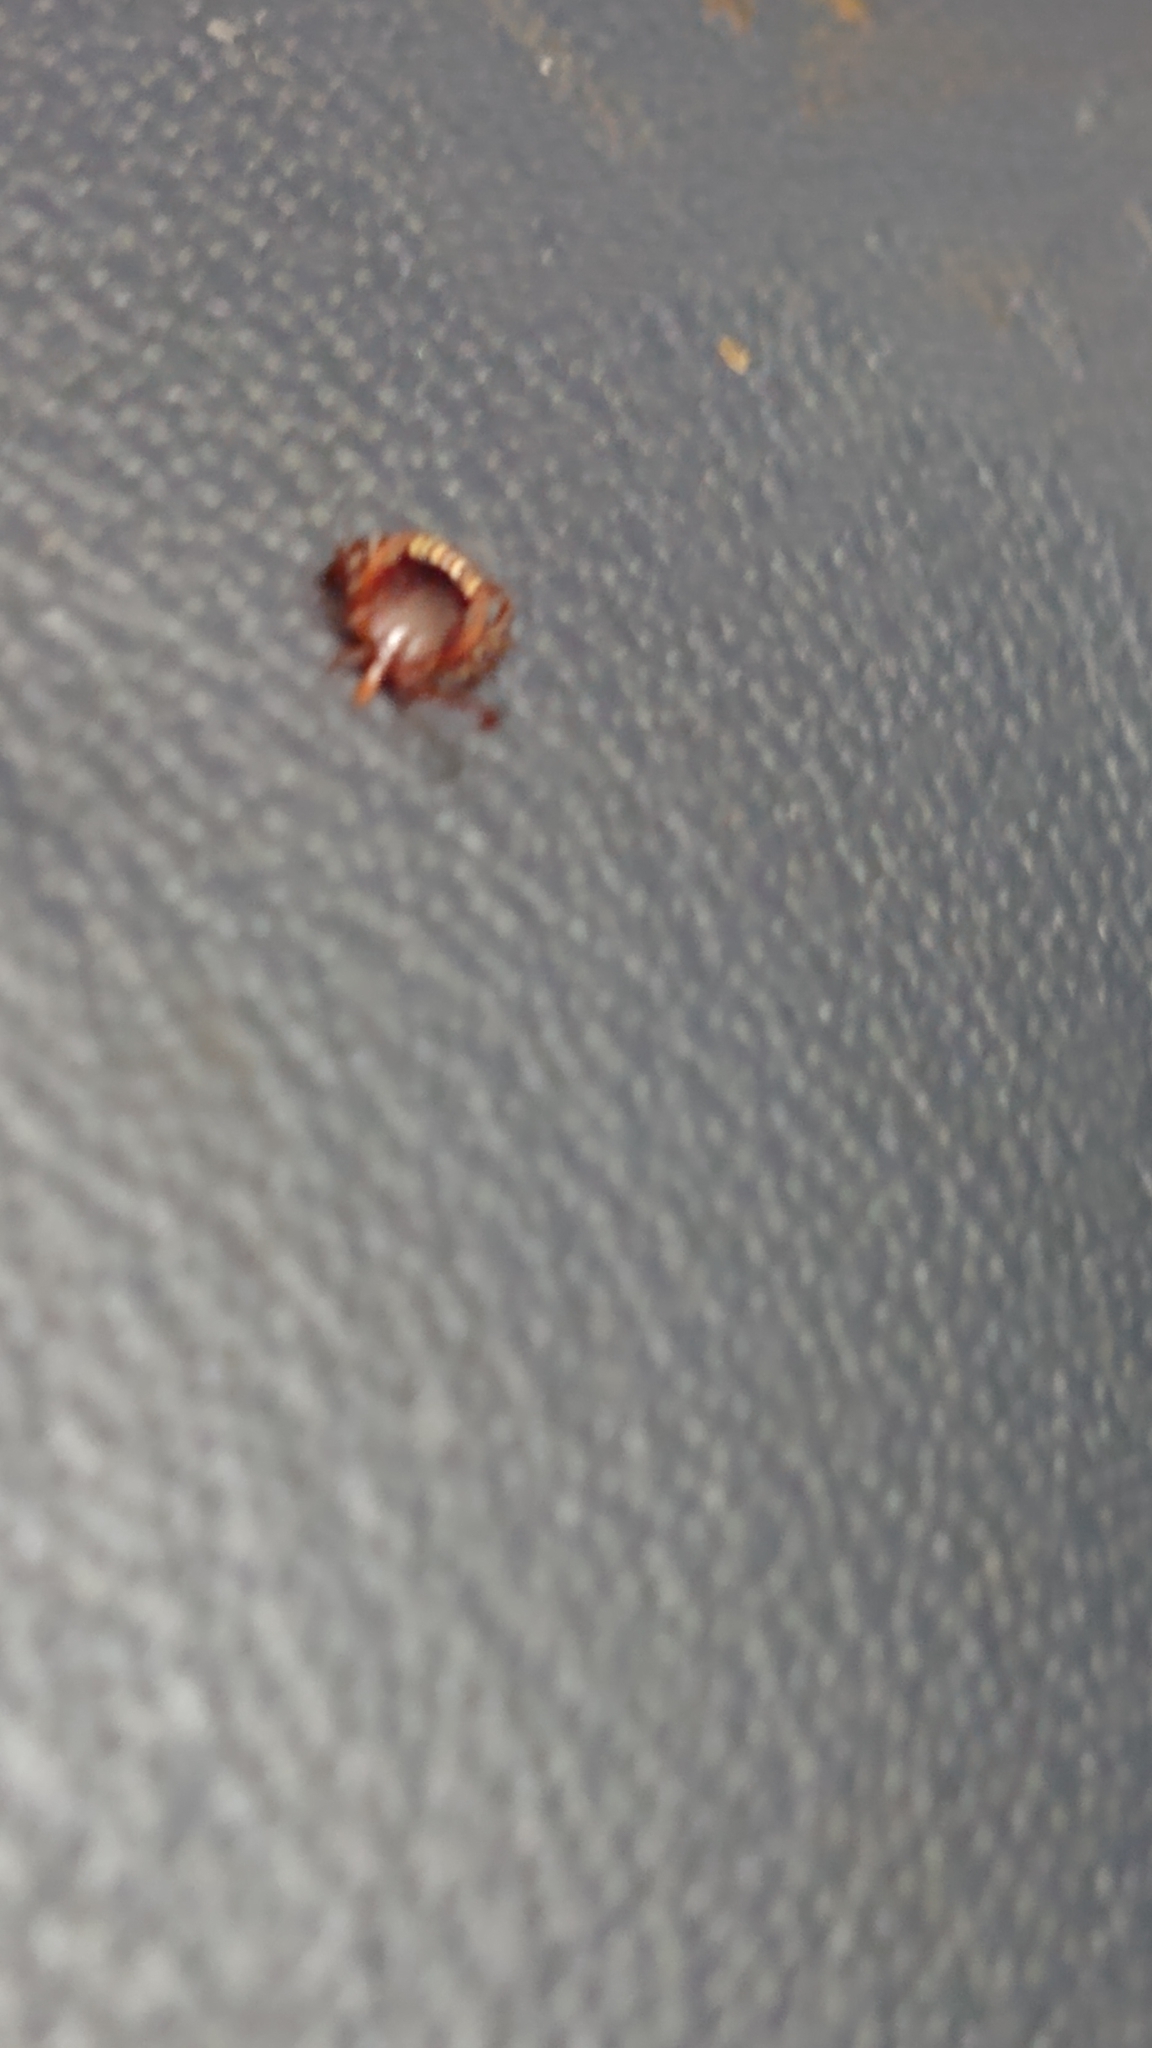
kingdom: Animalia
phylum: Arthropoda
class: Arachnida
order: Ixodida
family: Ixodidae
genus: Amblyomma
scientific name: Amblyomma americanum
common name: Lone star tick
